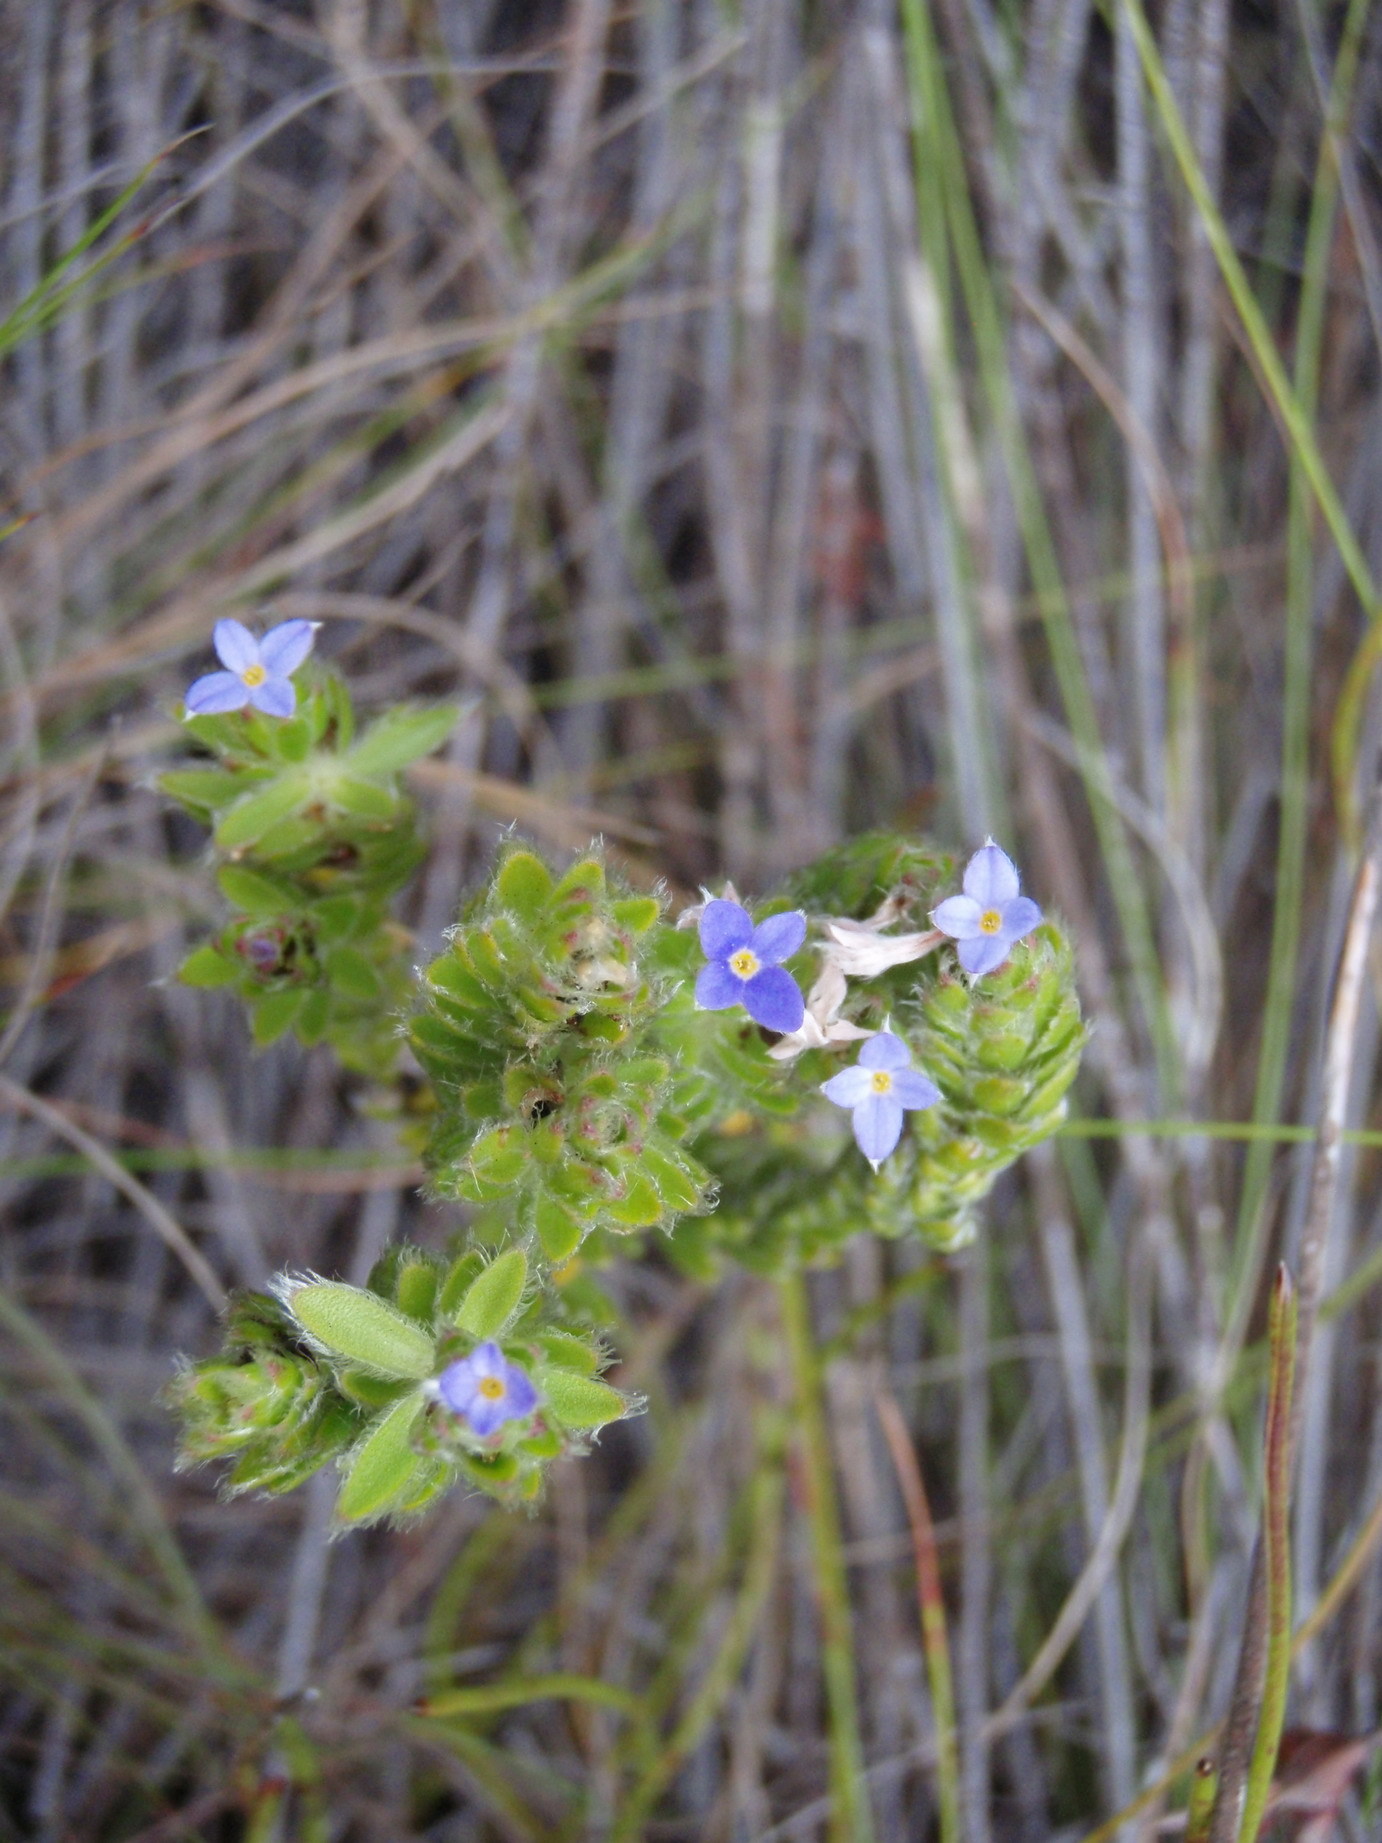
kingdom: Plantae
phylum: Tracheophyta
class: Magnoliopsida
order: Malvales
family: Thymelaeaceae
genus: Gnidia
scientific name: Gnidia penicillata
